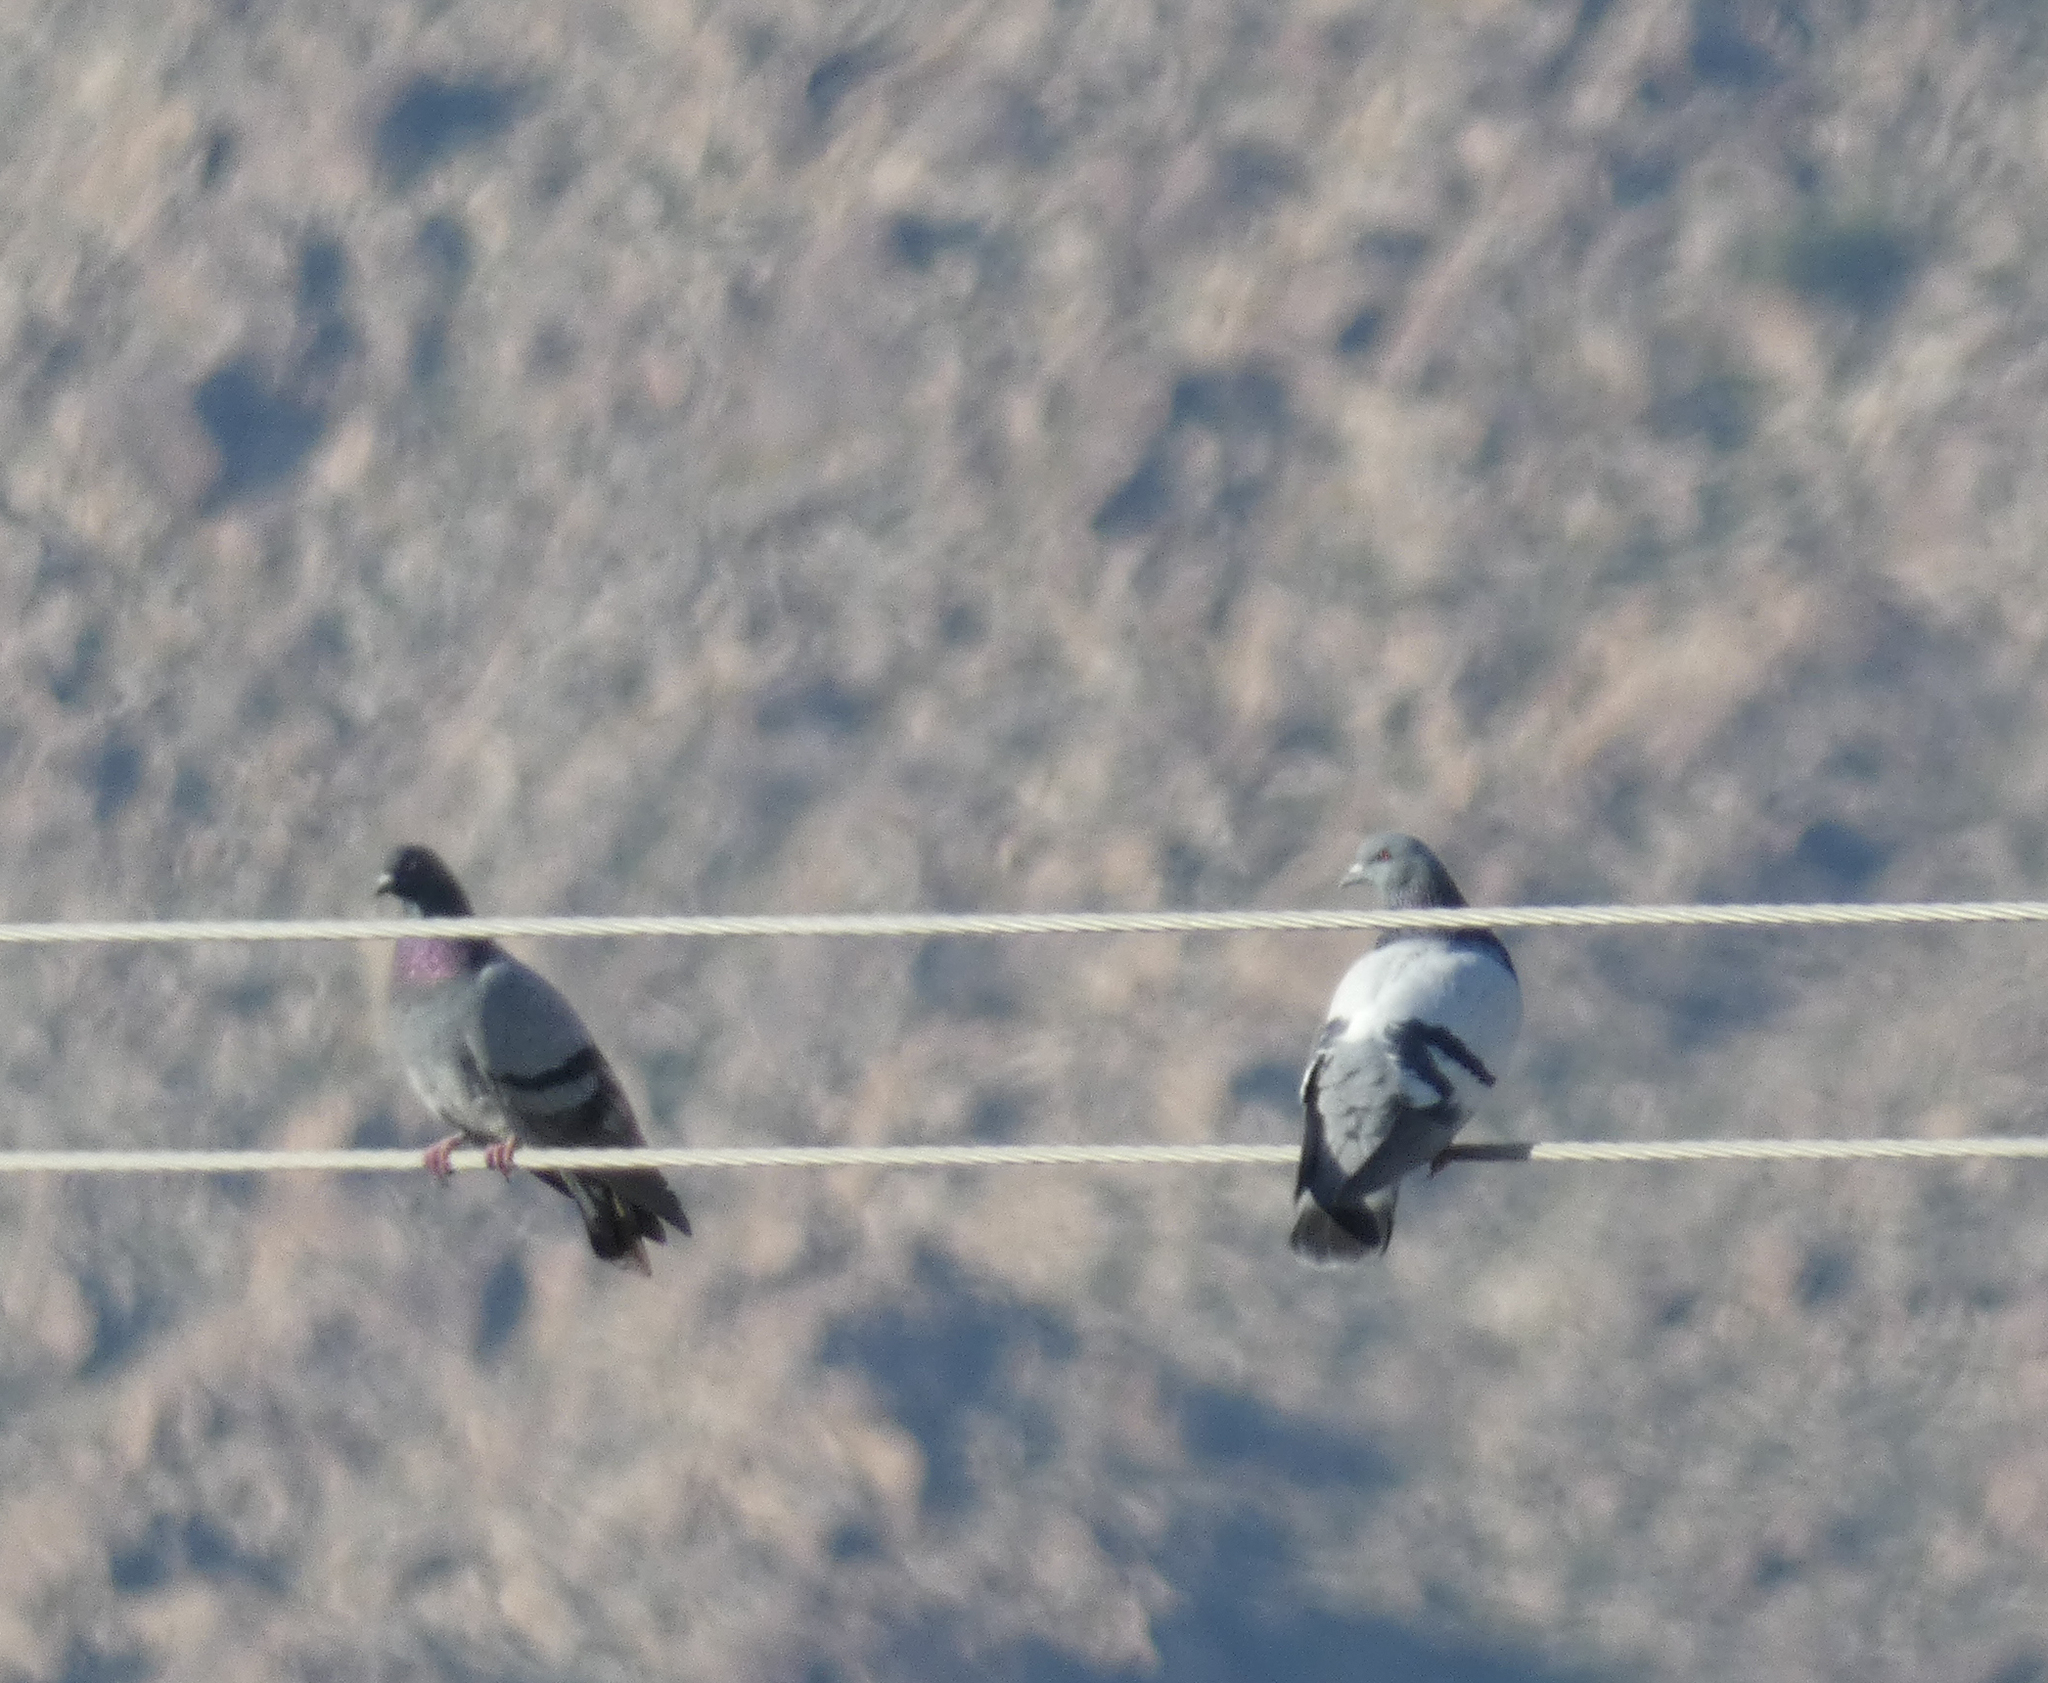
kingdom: Animalia
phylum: Chordata
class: Aves
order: Columbiformes
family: Columbidae
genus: Columba
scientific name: Columba livia
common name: Rock pigeon
